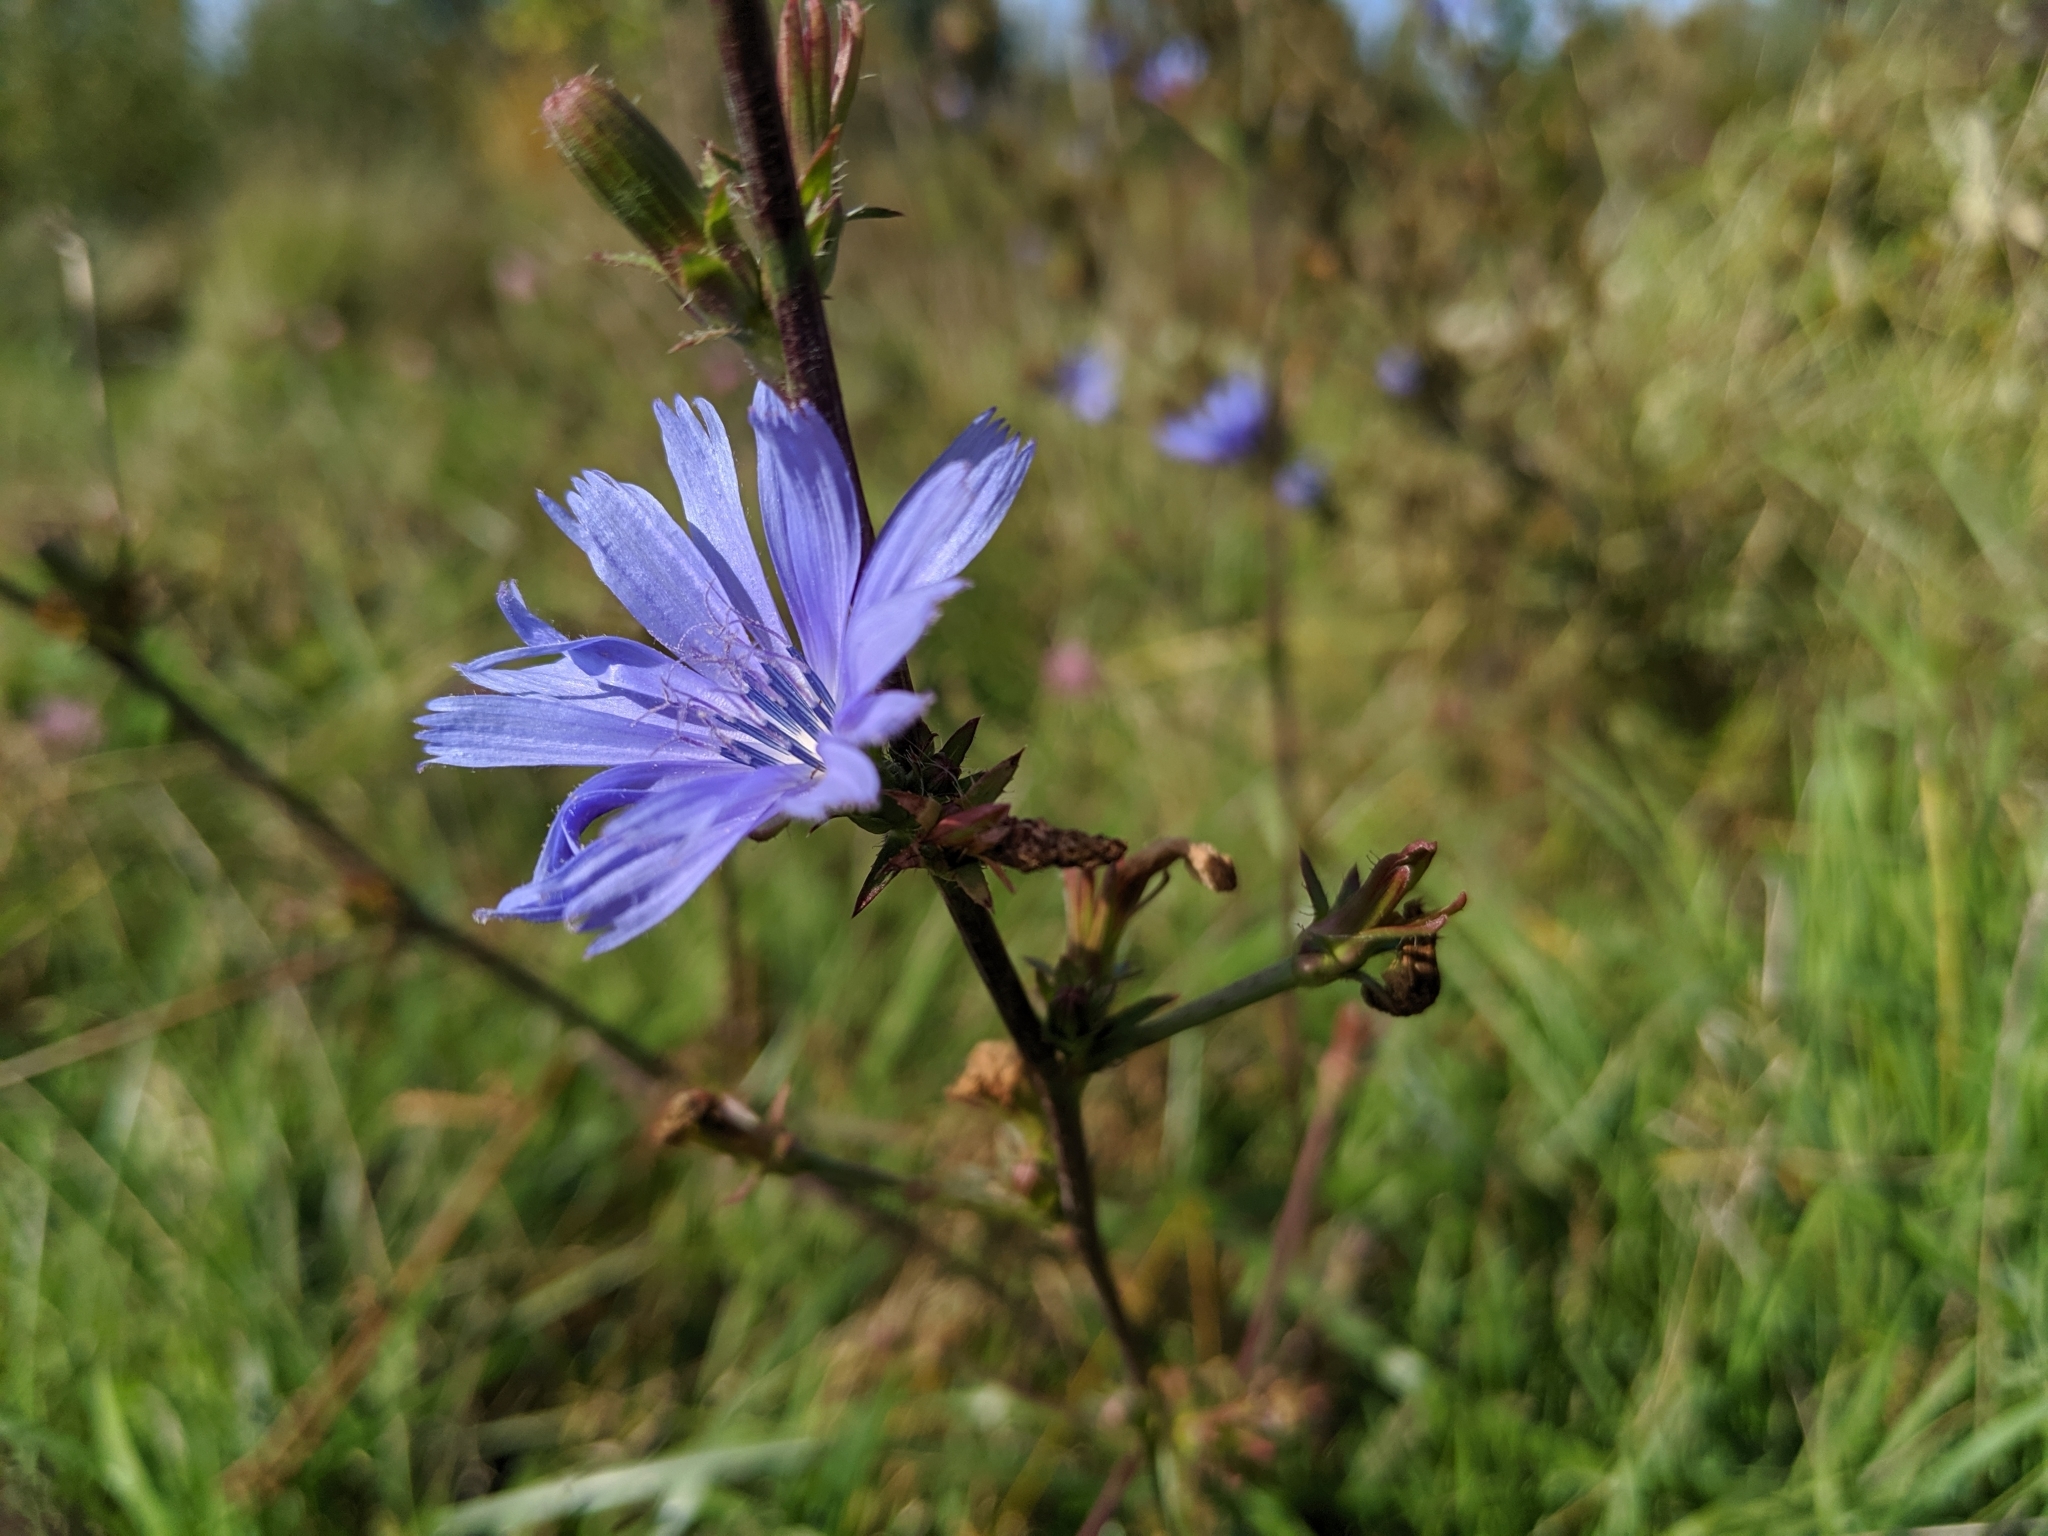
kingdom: Plantae
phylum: Tracheophyta
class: Magnoliopsida
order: Asterales
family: Asteraceae
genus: Cichorium
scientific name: Cichorium intybus
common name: Chicory
